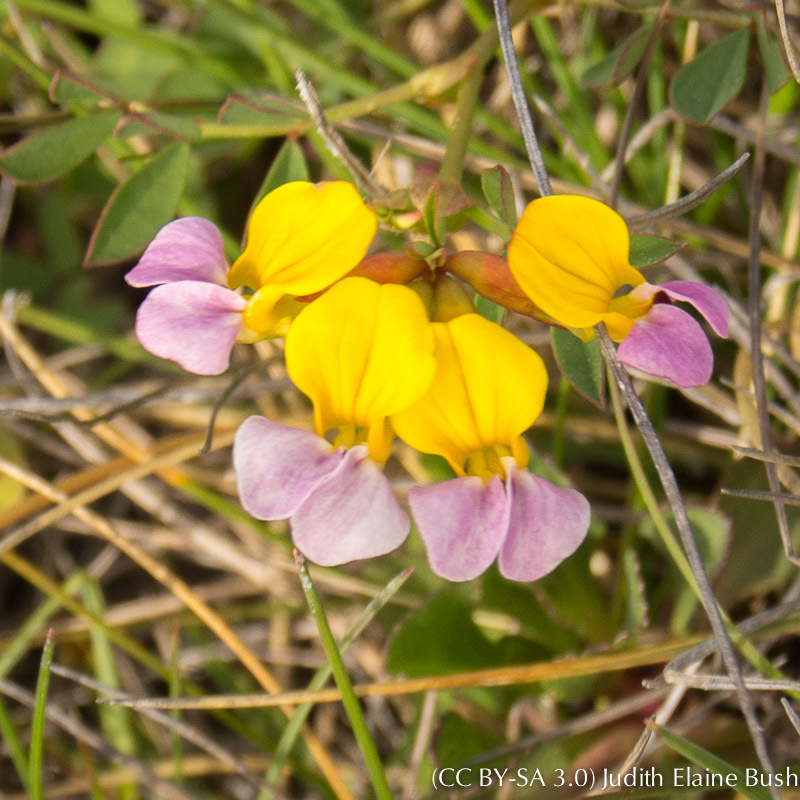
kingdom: Plantae
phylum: Tracheophyta
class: Magnoliopsida
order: Fabales
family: Fabaceae
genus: Hosackia
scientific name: Hosackia gracilis
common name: Seaside bird's-foot lotus
